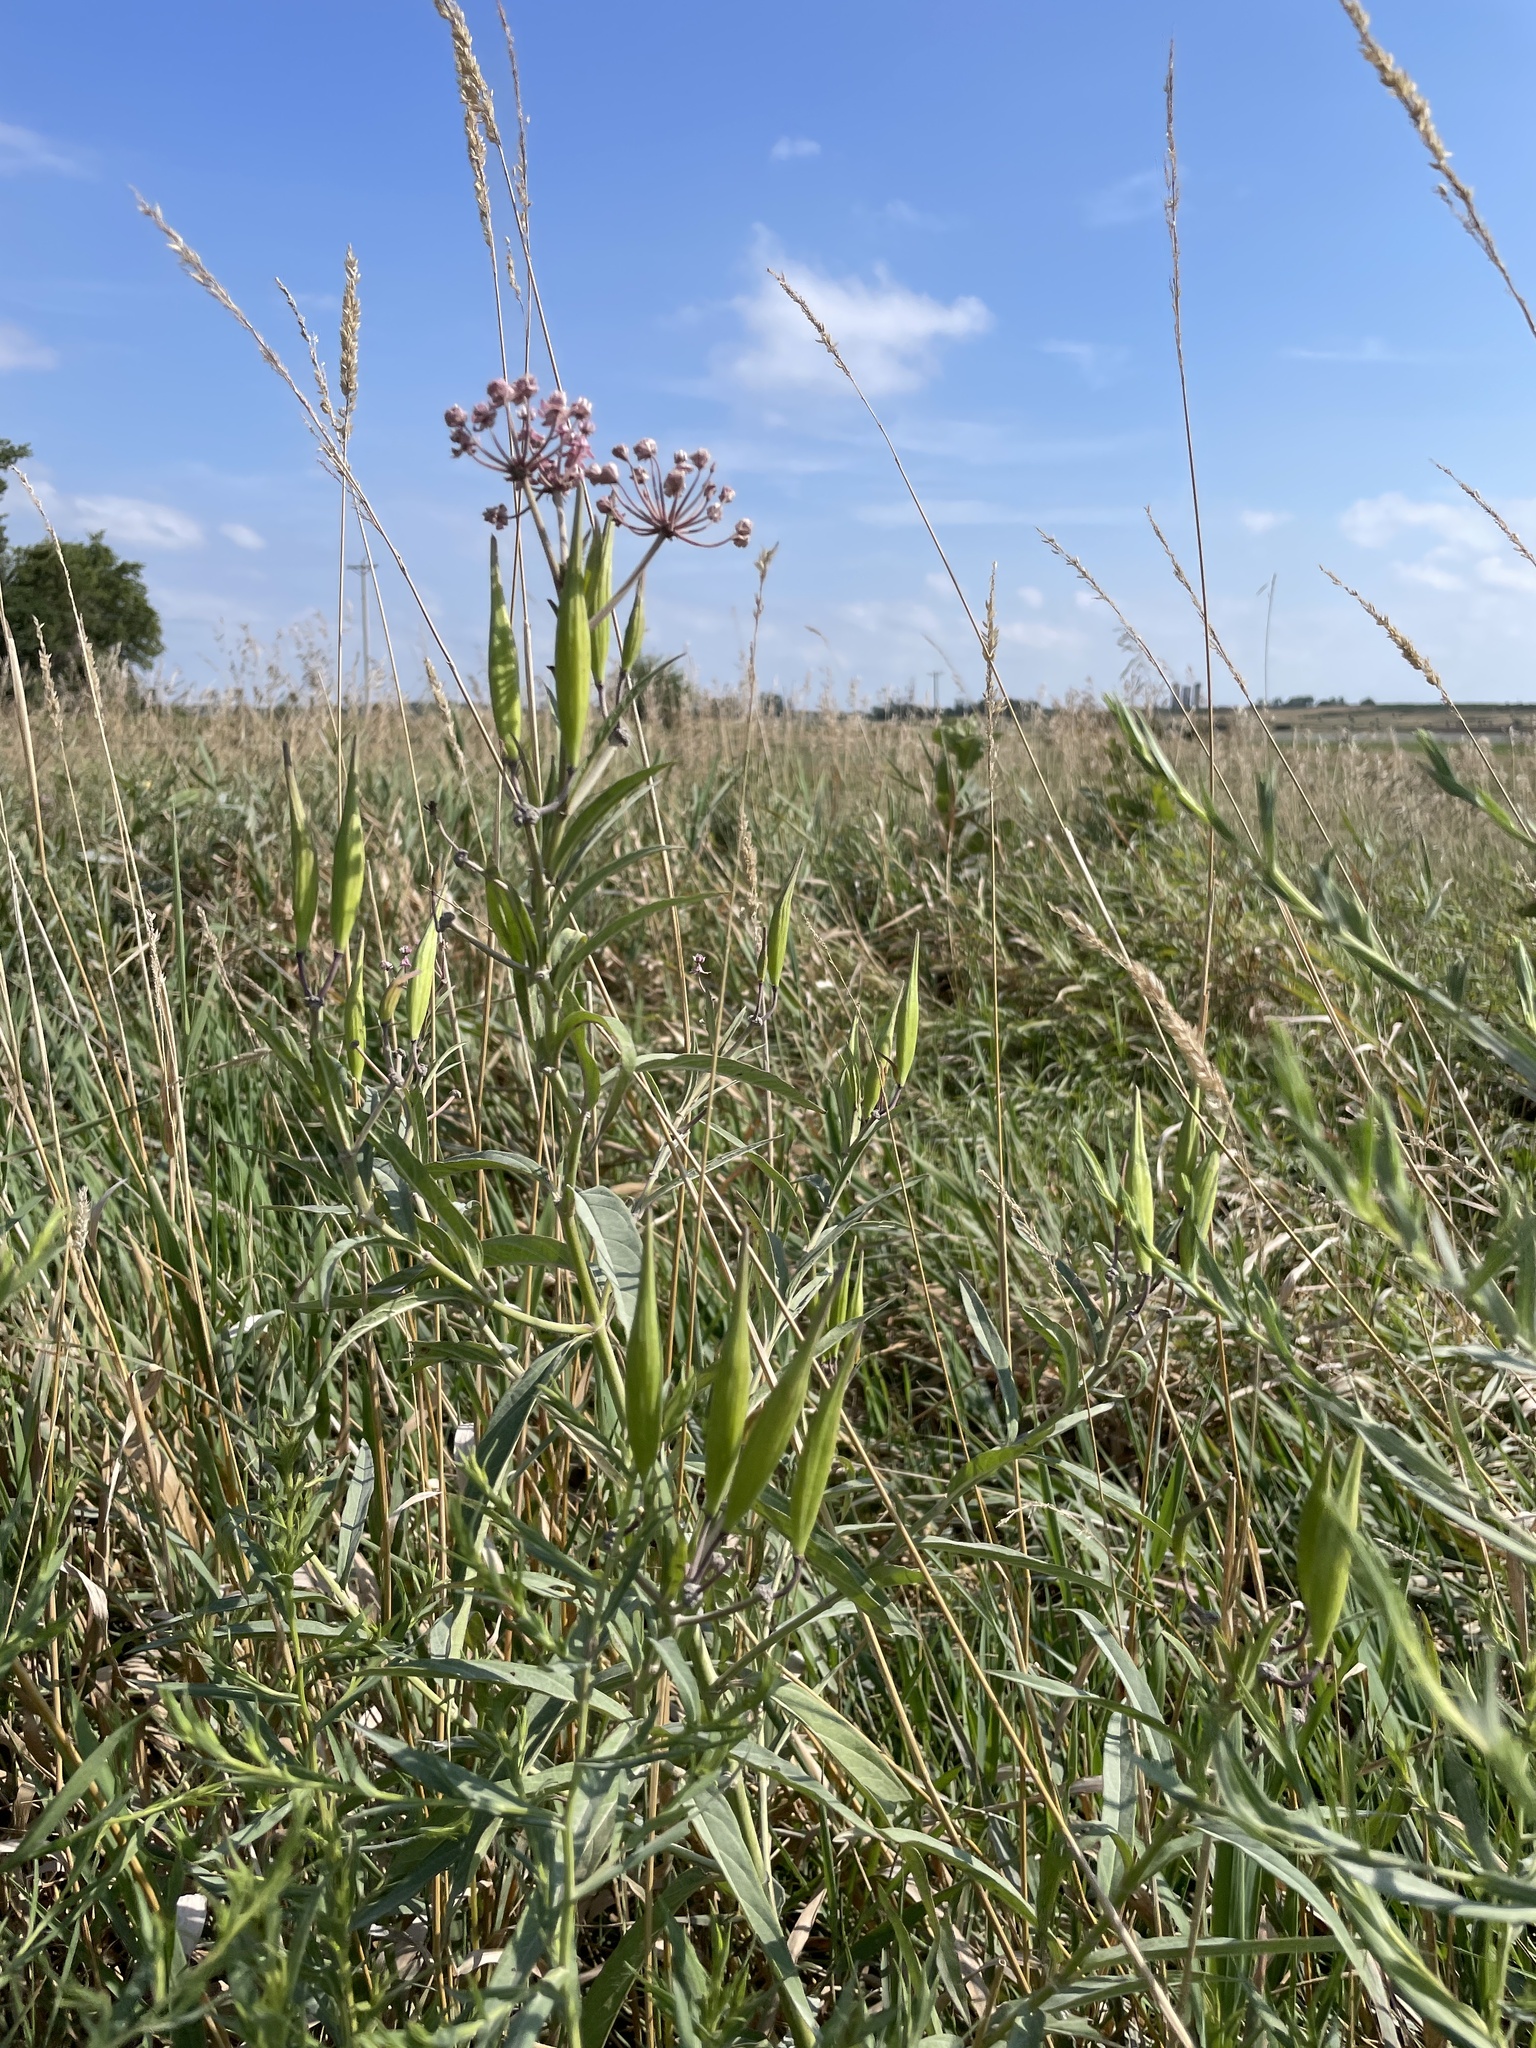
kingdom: Plantae
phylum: Tracheophyta
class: Magnoliopsida
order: Gentianales
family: Apocynaceae
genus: Asclepias
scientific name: Asclepias incarnata
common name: Swamp milkweed
